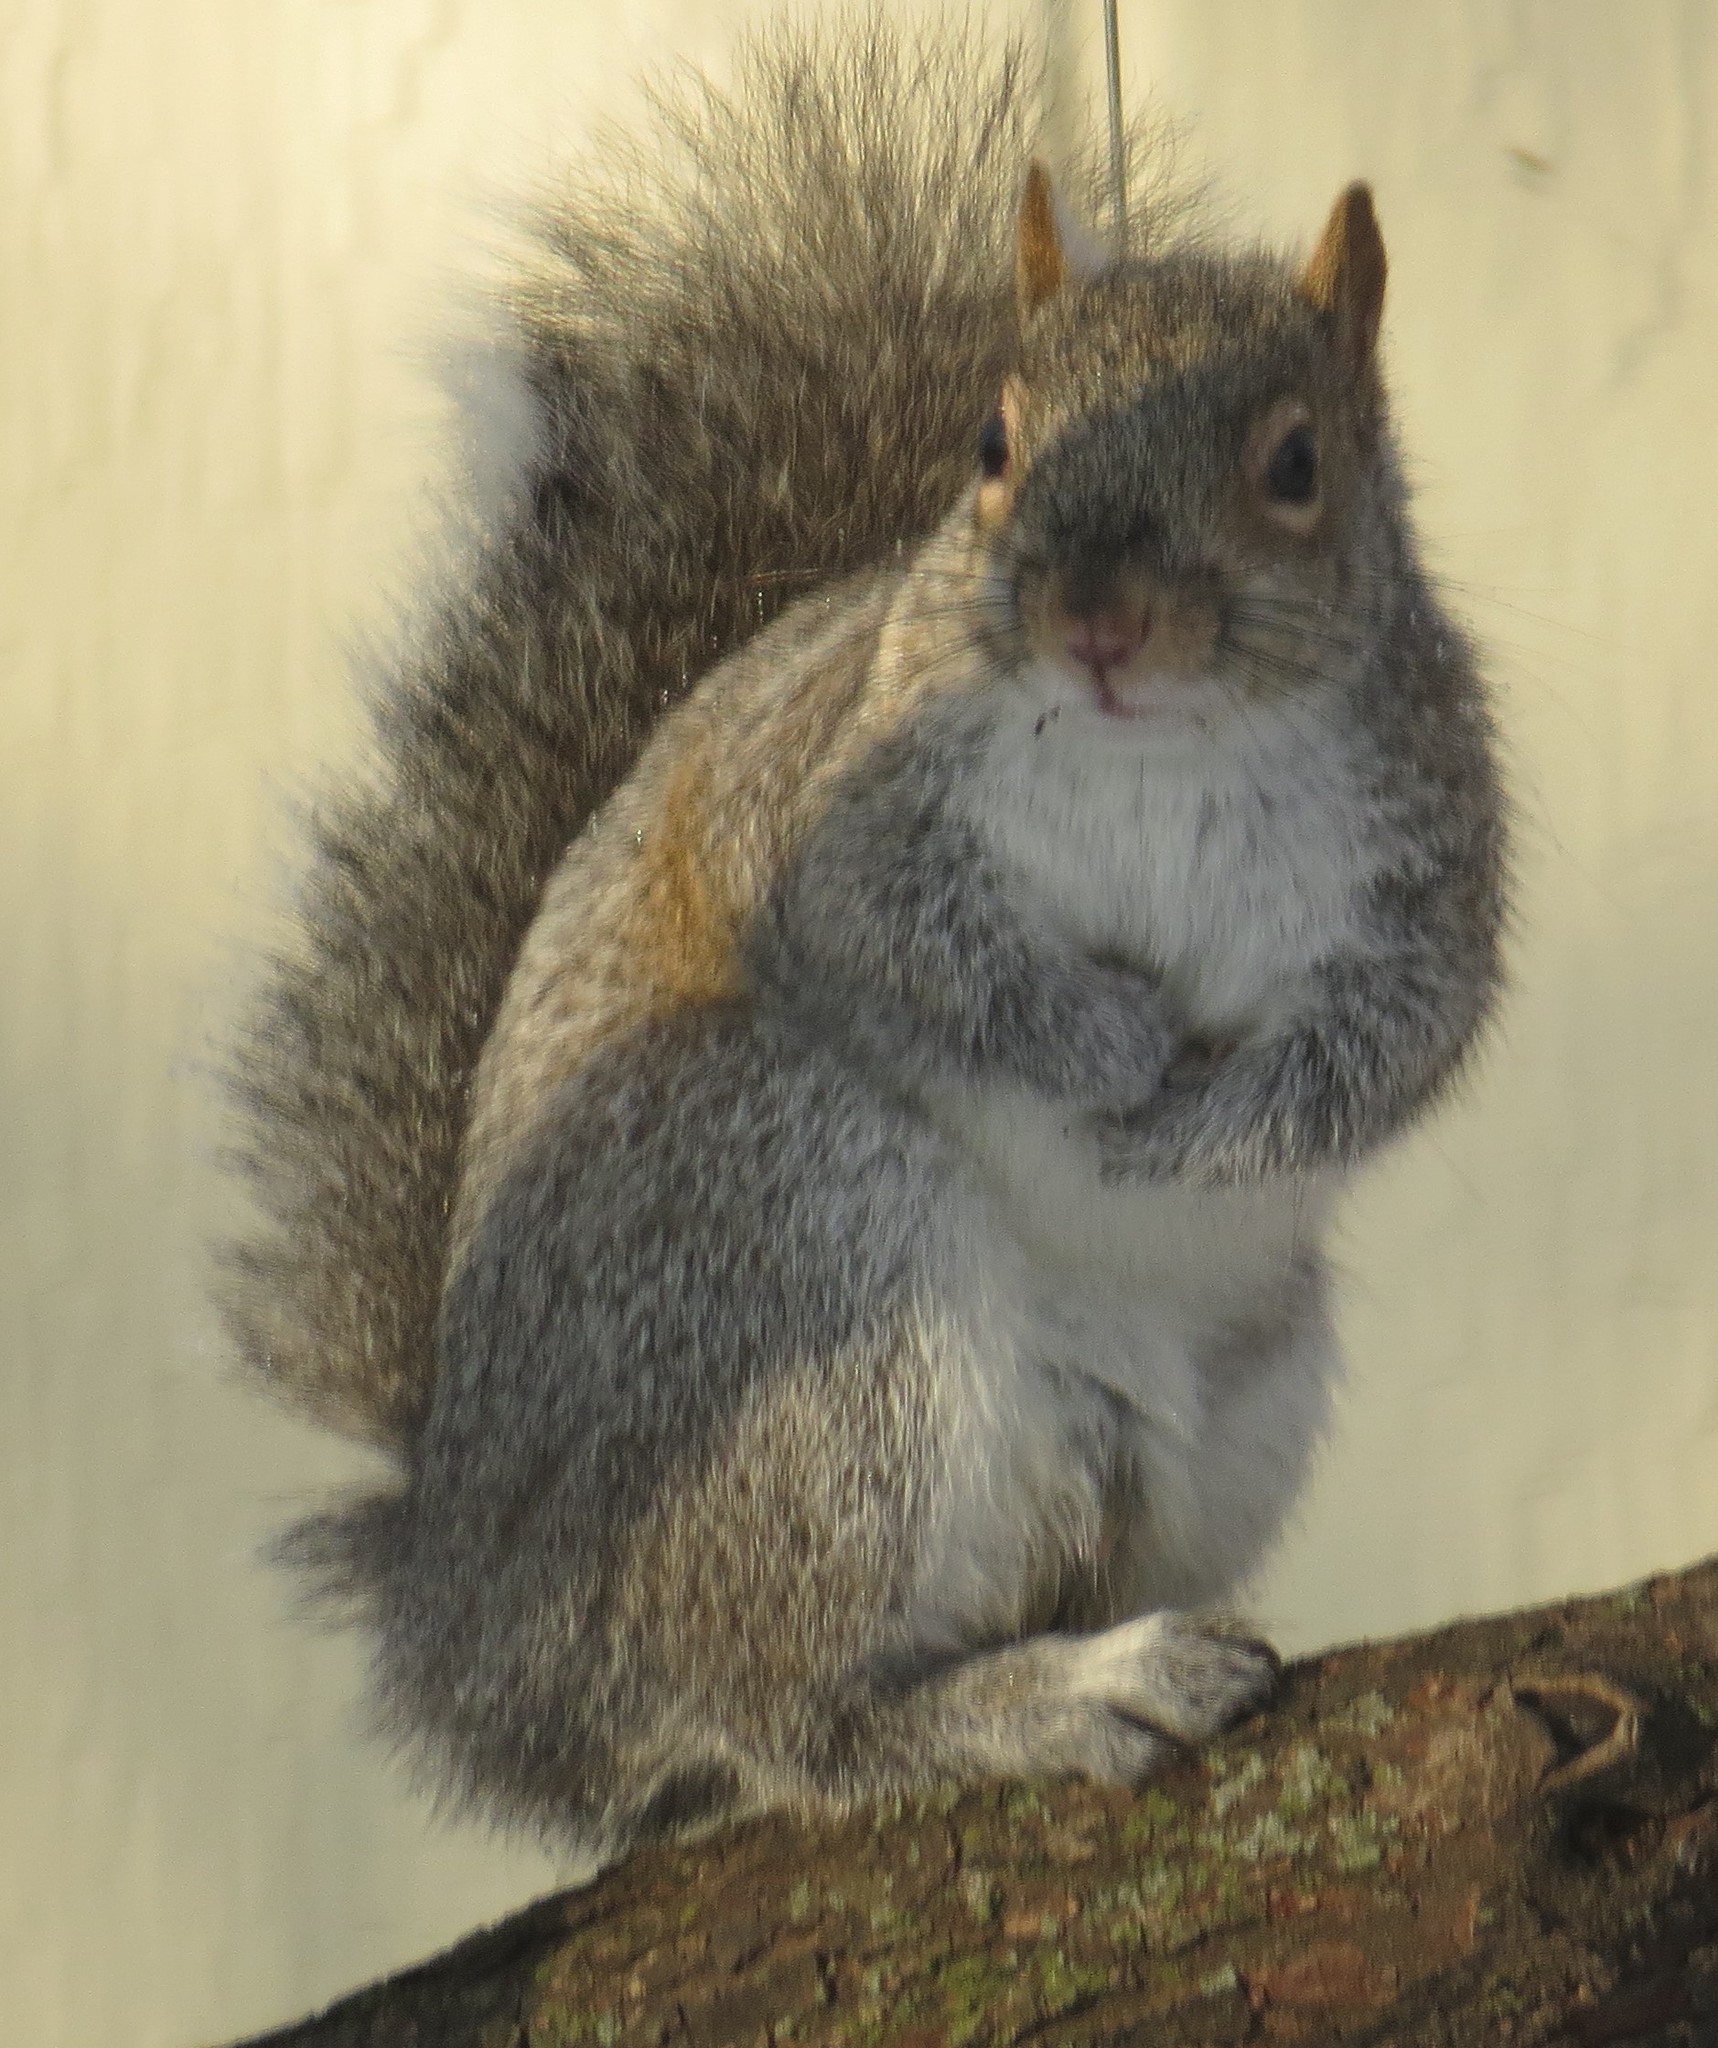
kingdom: Animalia
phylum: Chordata
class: Mammalia
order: Rodentia
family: Sciuridae
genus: Sciurus
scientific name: Sciurus carolinensis
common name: Eastern gray squirrel
